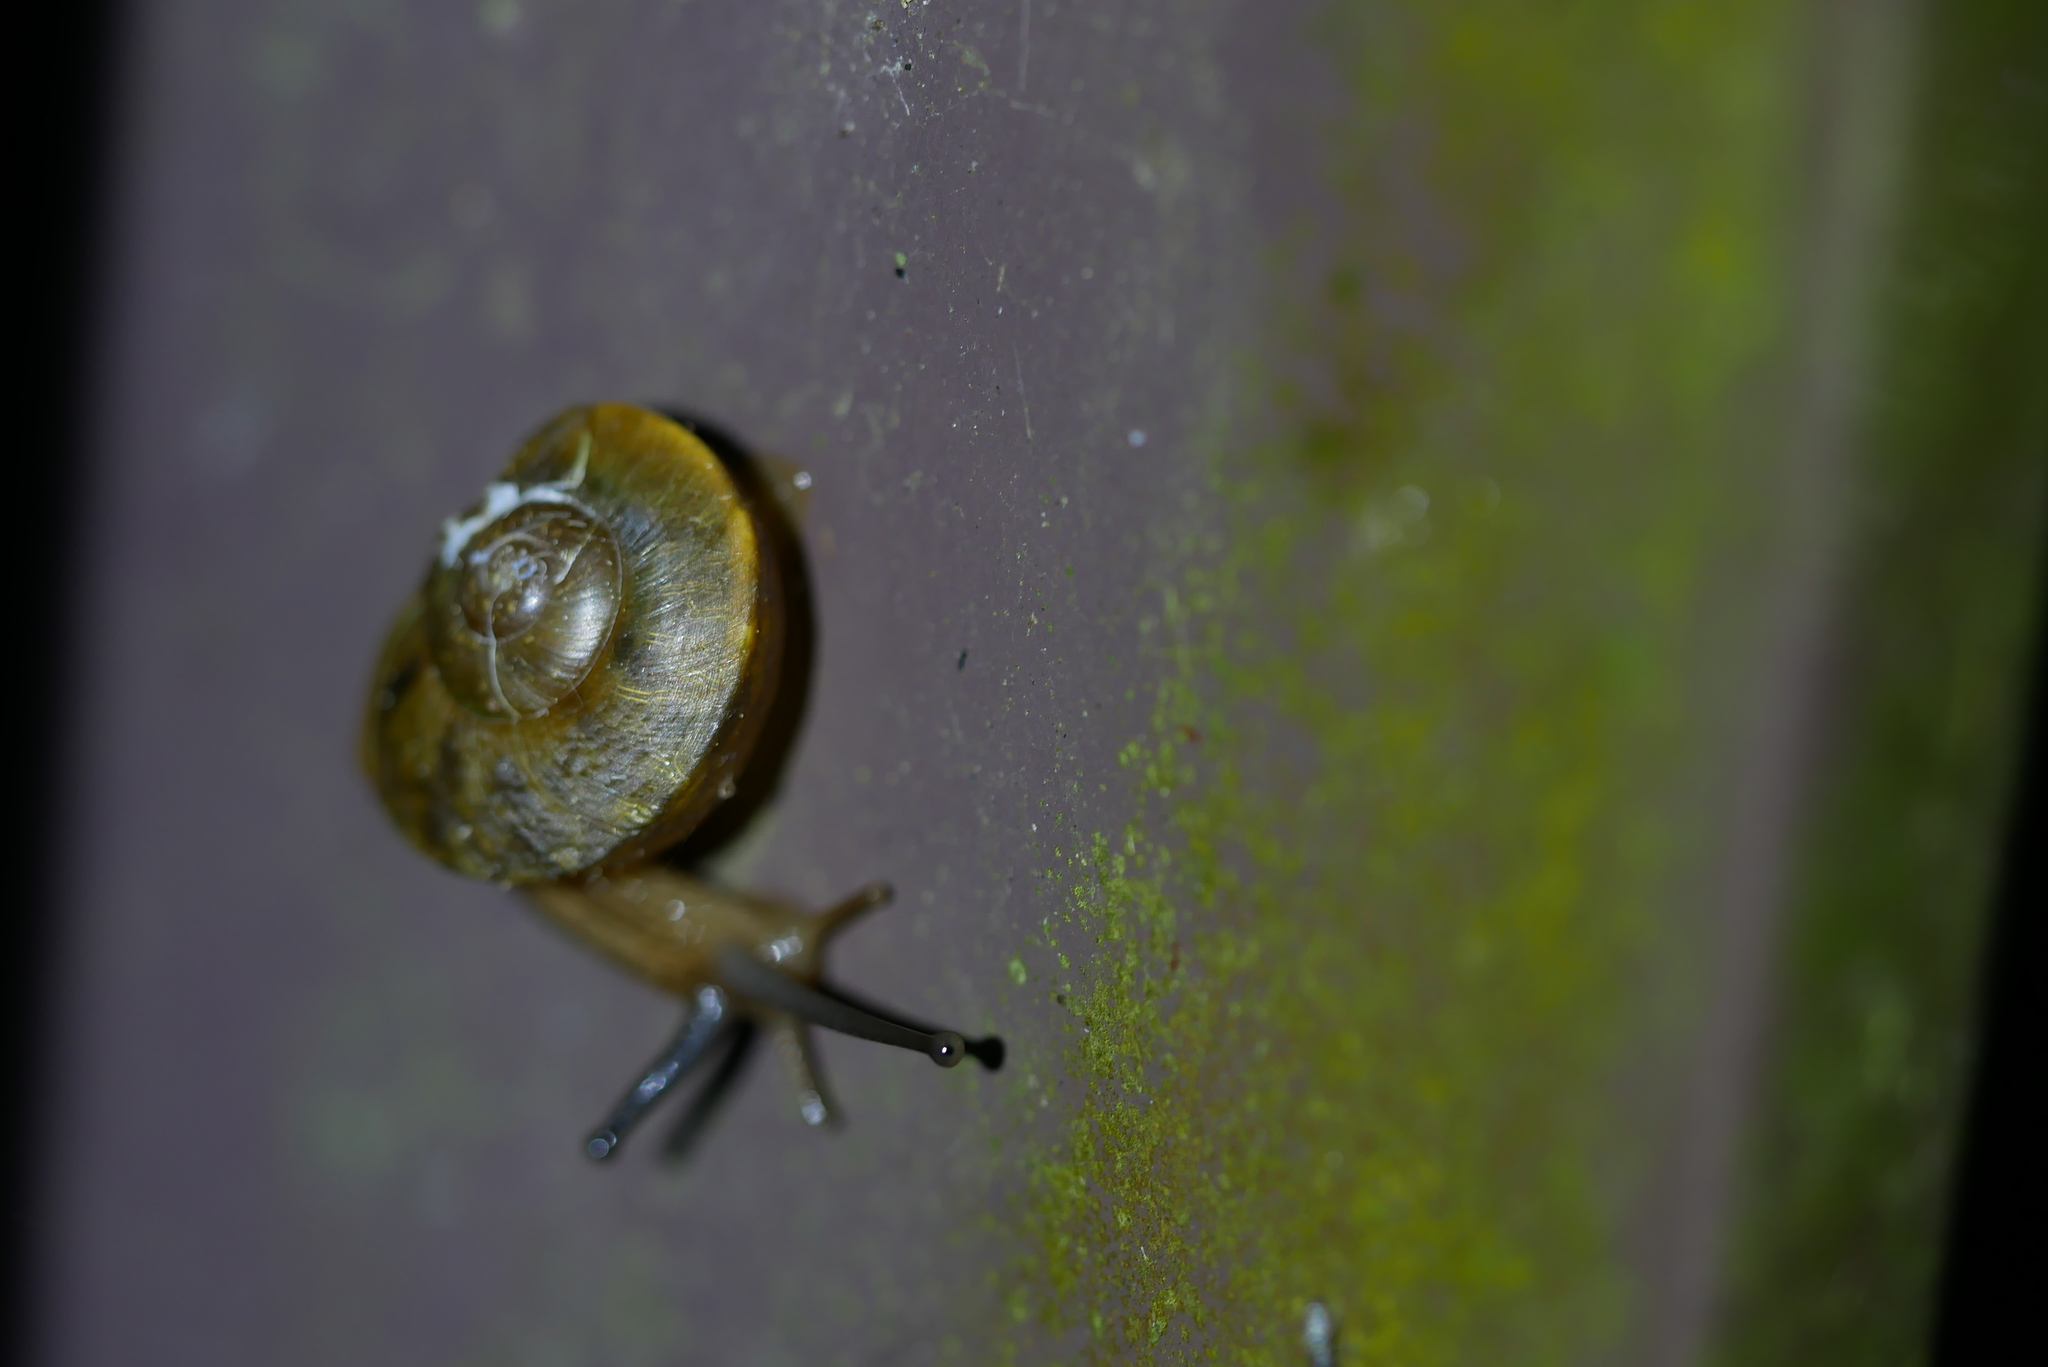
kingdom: Animalia
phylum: Mollusca
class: Gastropoda
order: Stylommatophora
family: Camaenidae
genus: Nesiohelix
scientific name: Nesiohelix swinhoei
